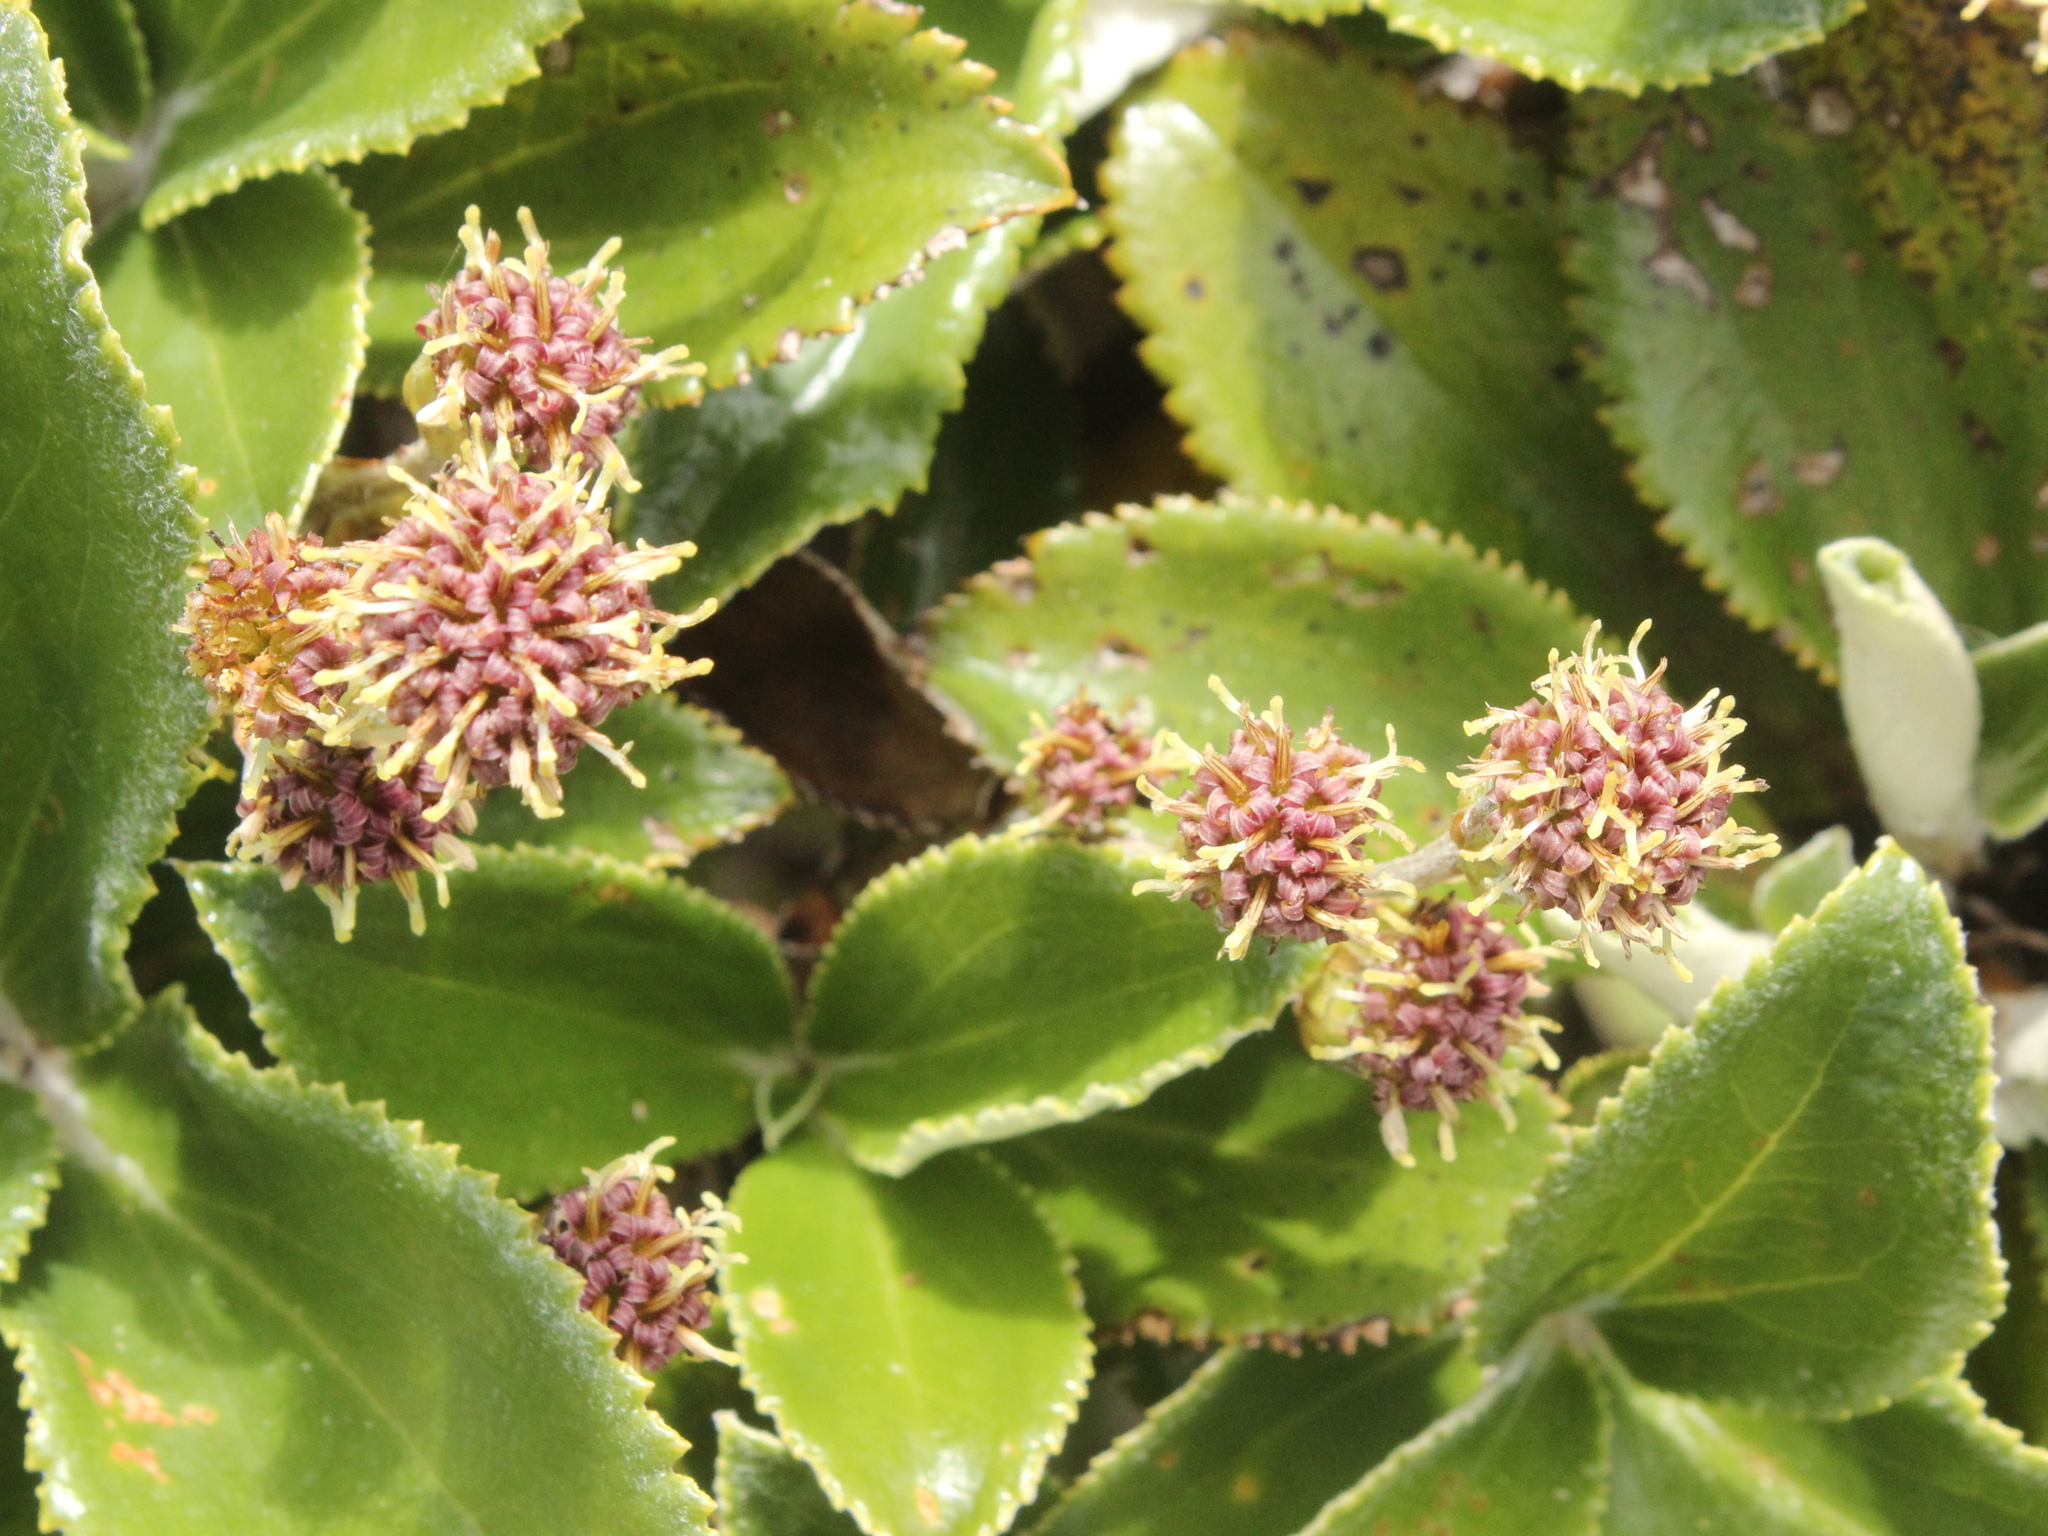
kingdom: Plantae
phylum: Tracheophyta
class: Magnoliopsida
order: Asterales
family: Asteraceae
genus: Macrolearia
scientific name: Macrolearia colensoi
